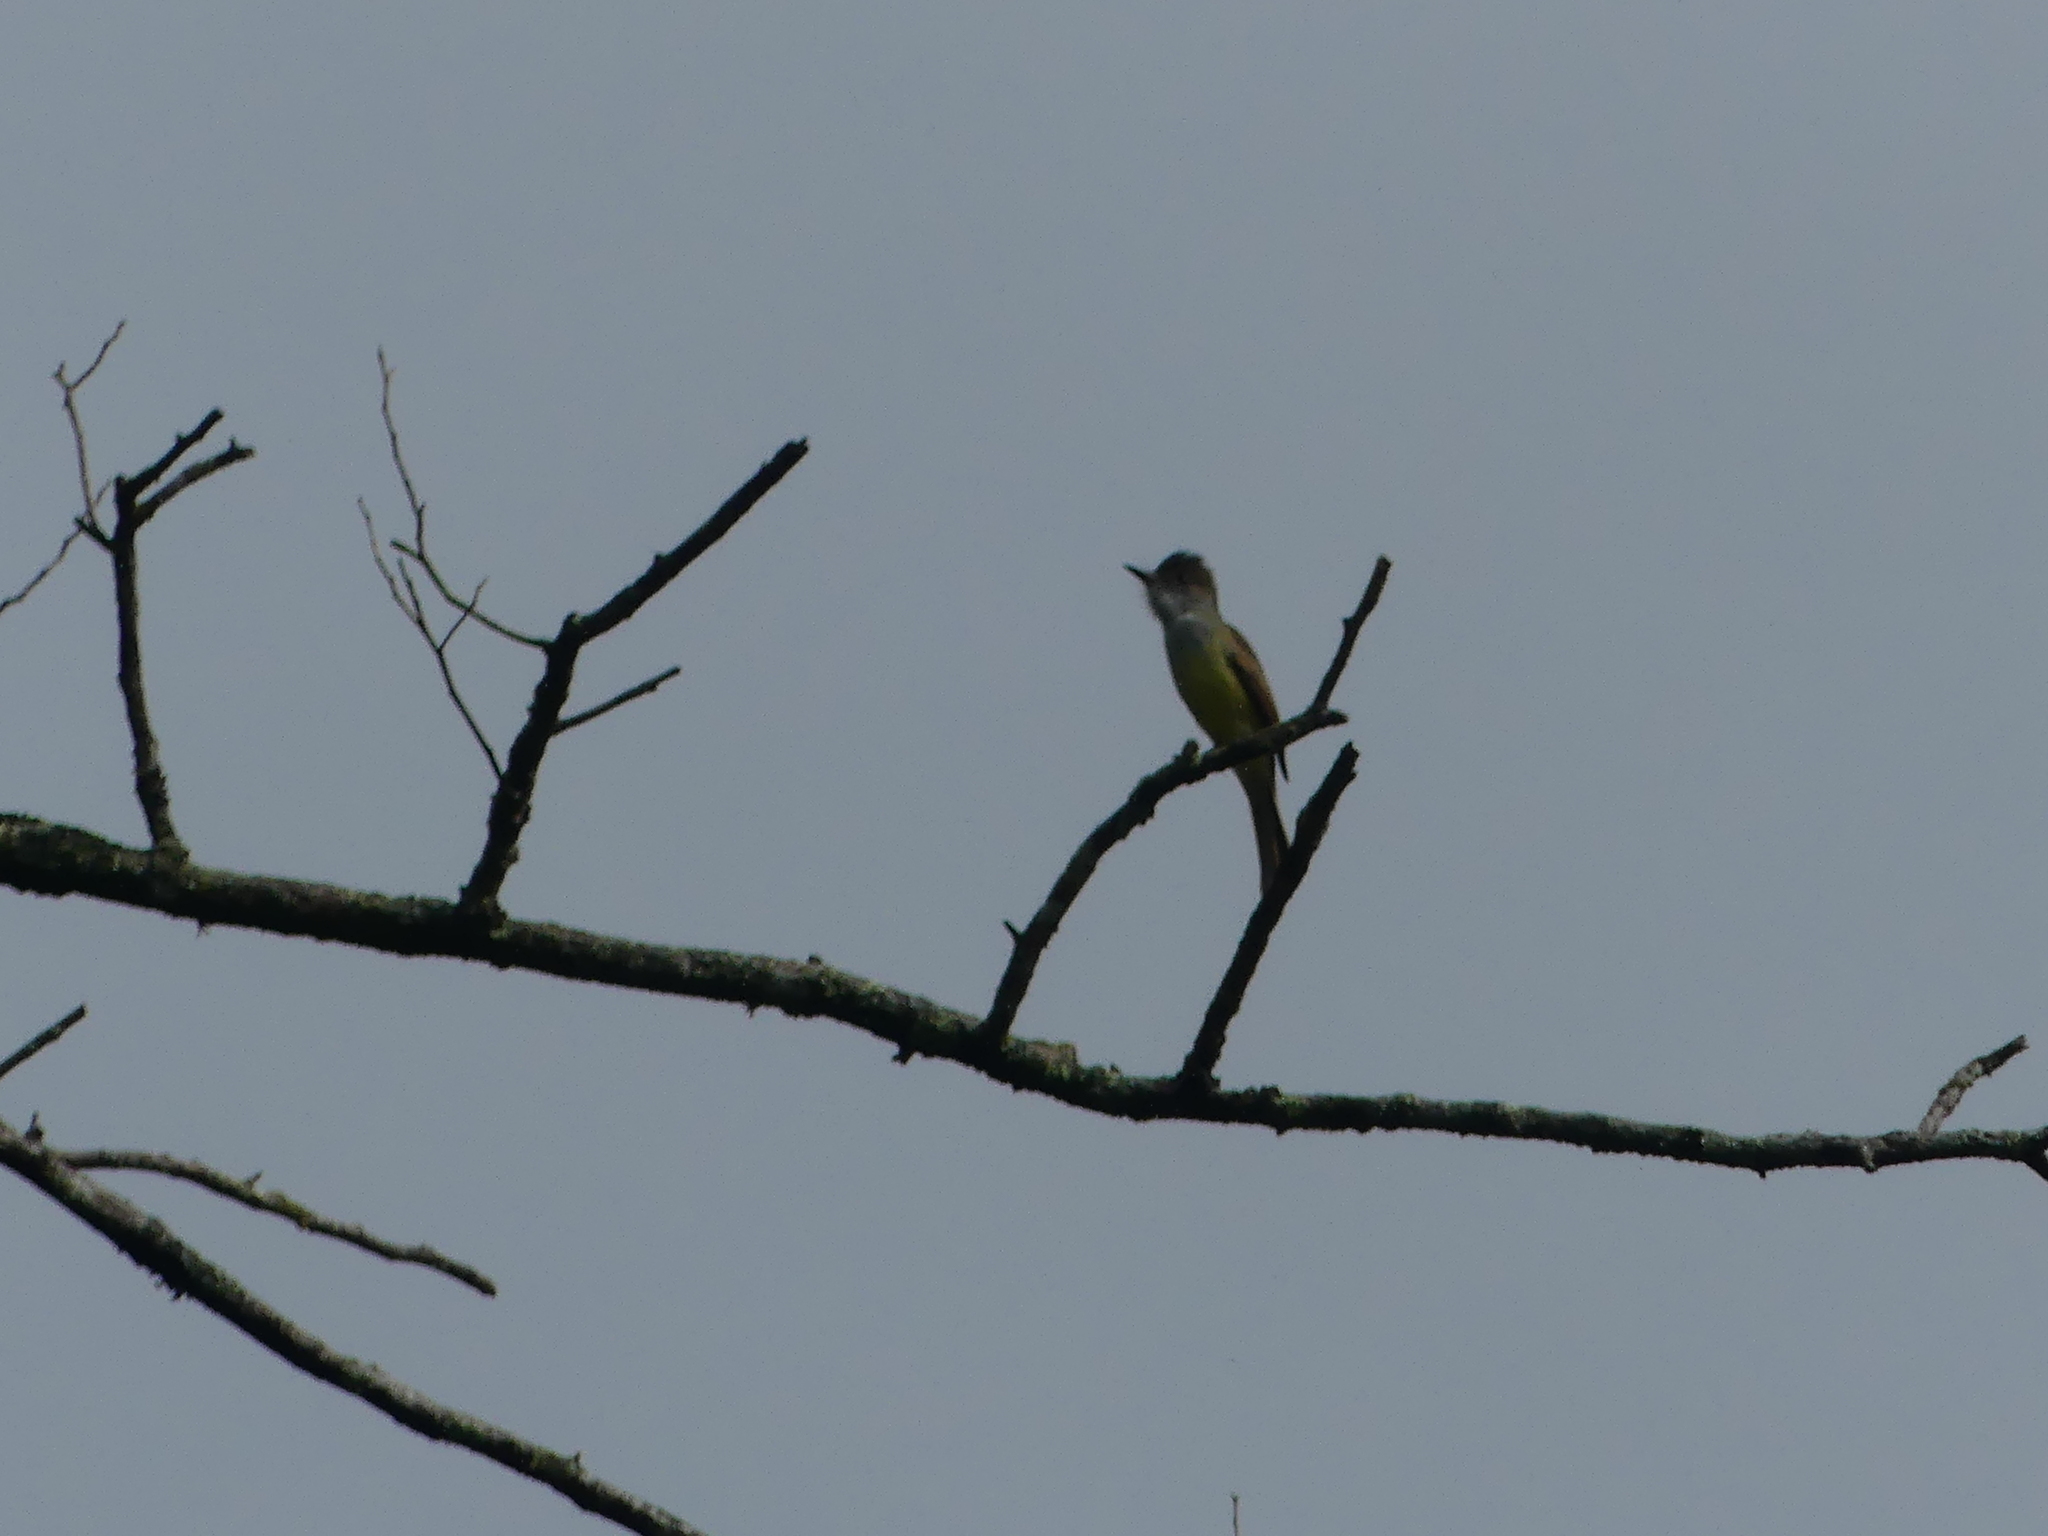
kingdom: Animalia
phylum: Chordata
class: Aves
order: Passeriformes
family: Tyrannidae
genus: Myiarchus
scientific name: Myiarchus tuberculifer
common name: Dusky-capped flycatcher
